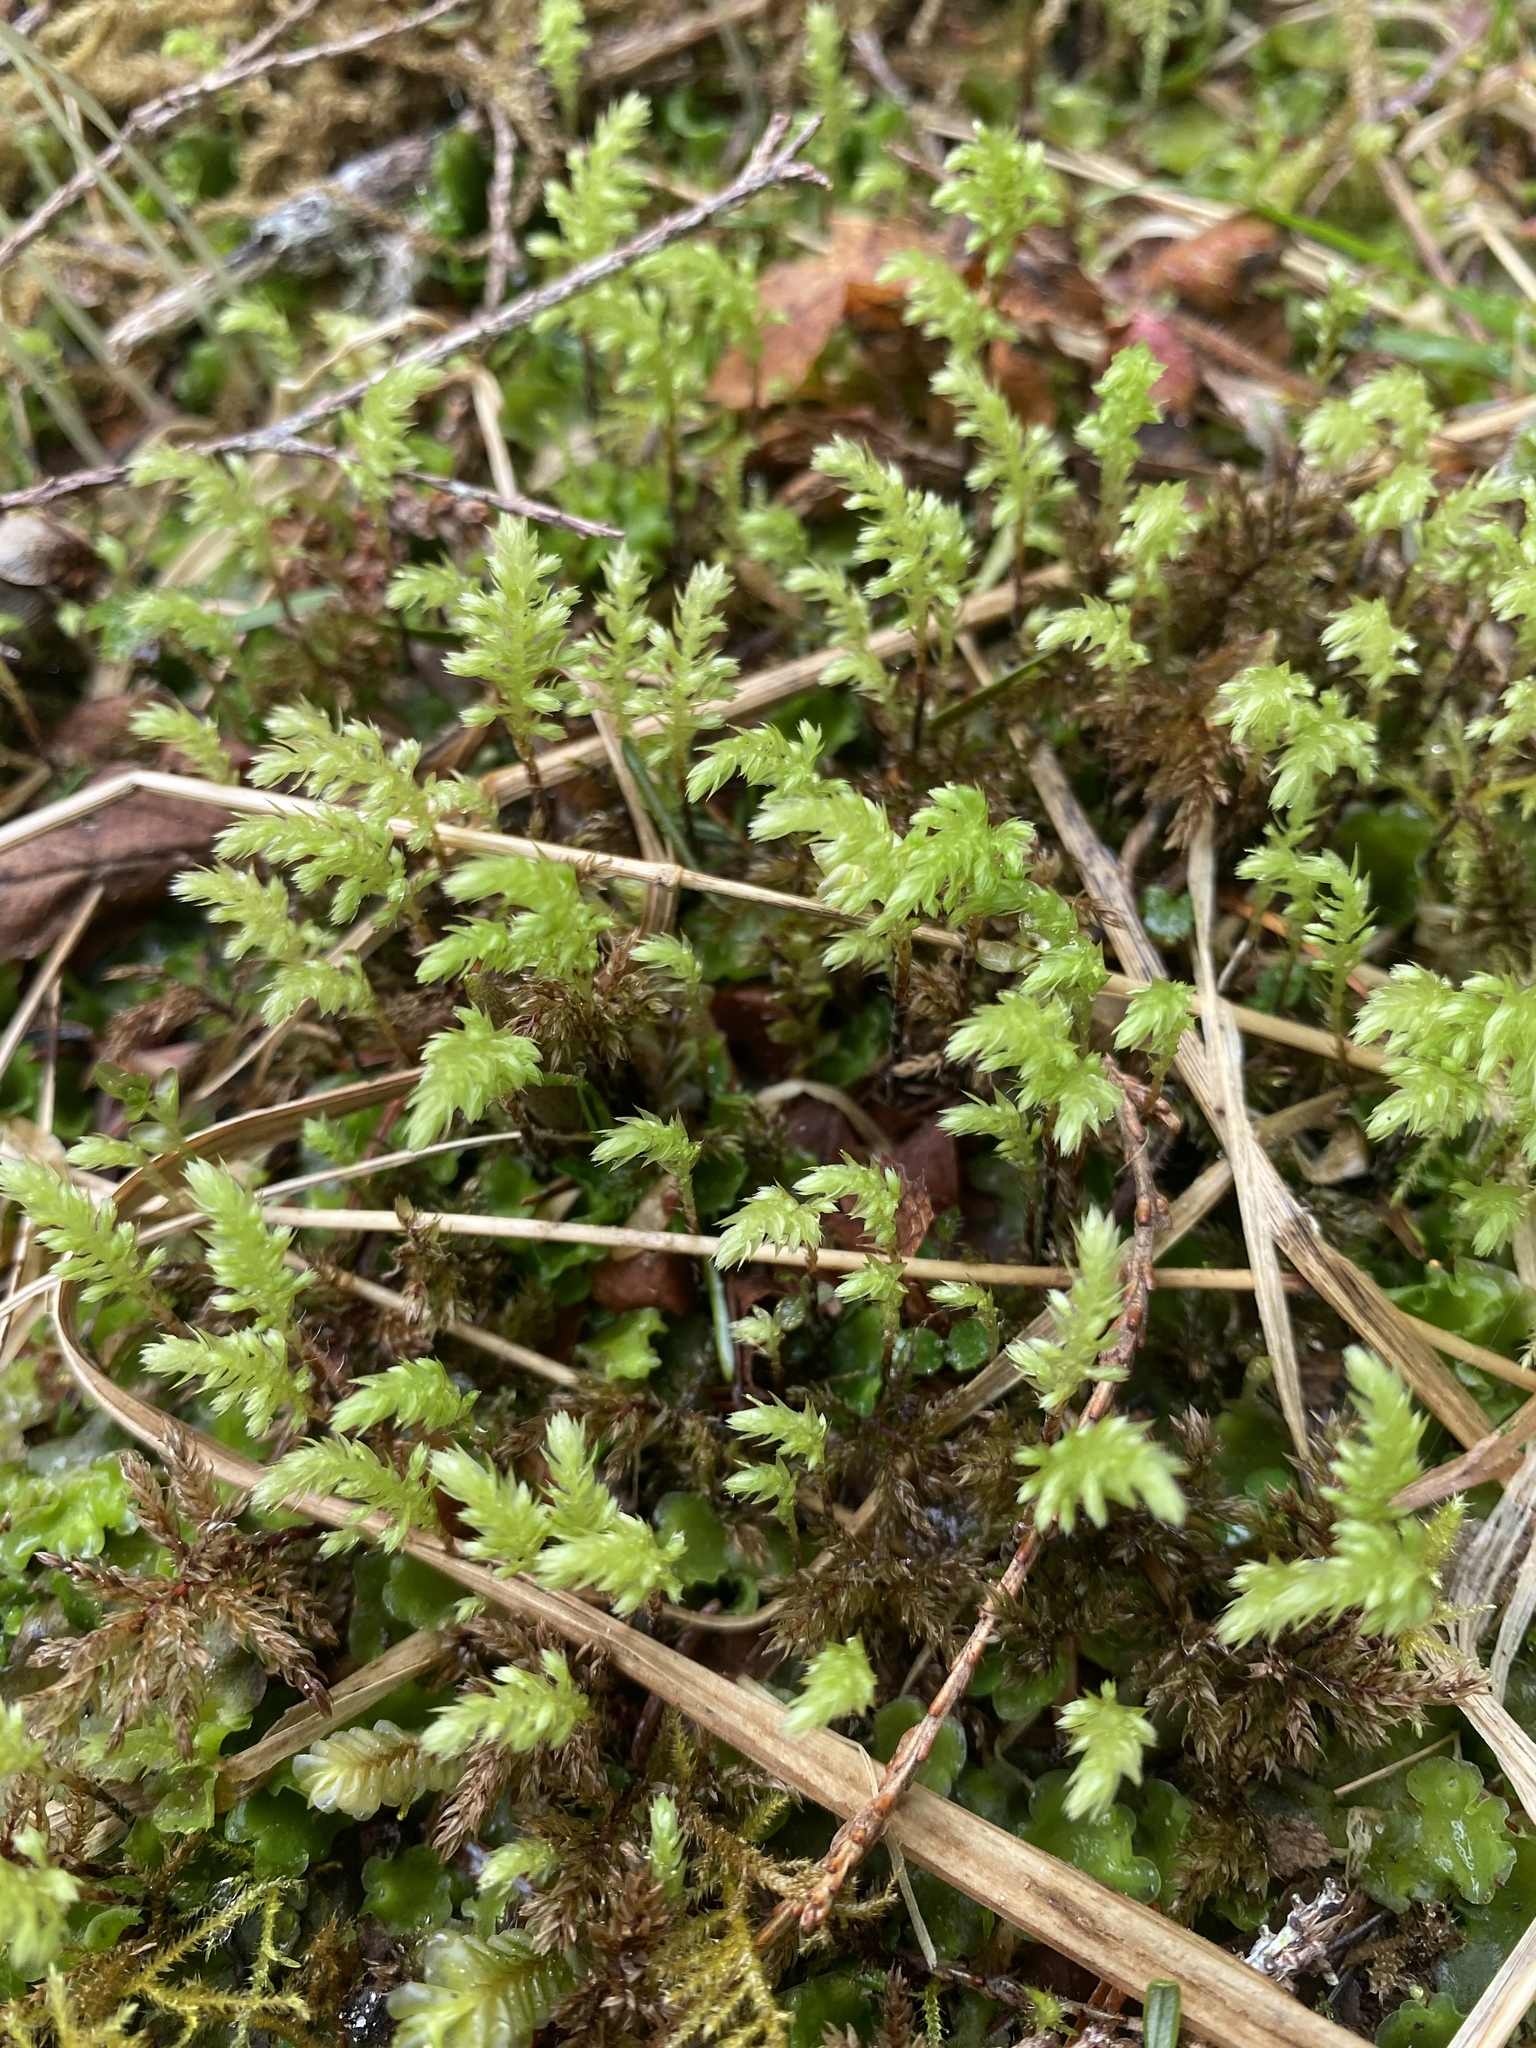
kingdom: Plantae
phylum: Bryophyta
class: Bryopsida
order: Bryales
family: Mniaceae
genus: Leucolepis
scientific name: Leucolepis acanthoneura
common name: Leucolepis umbrella moss
